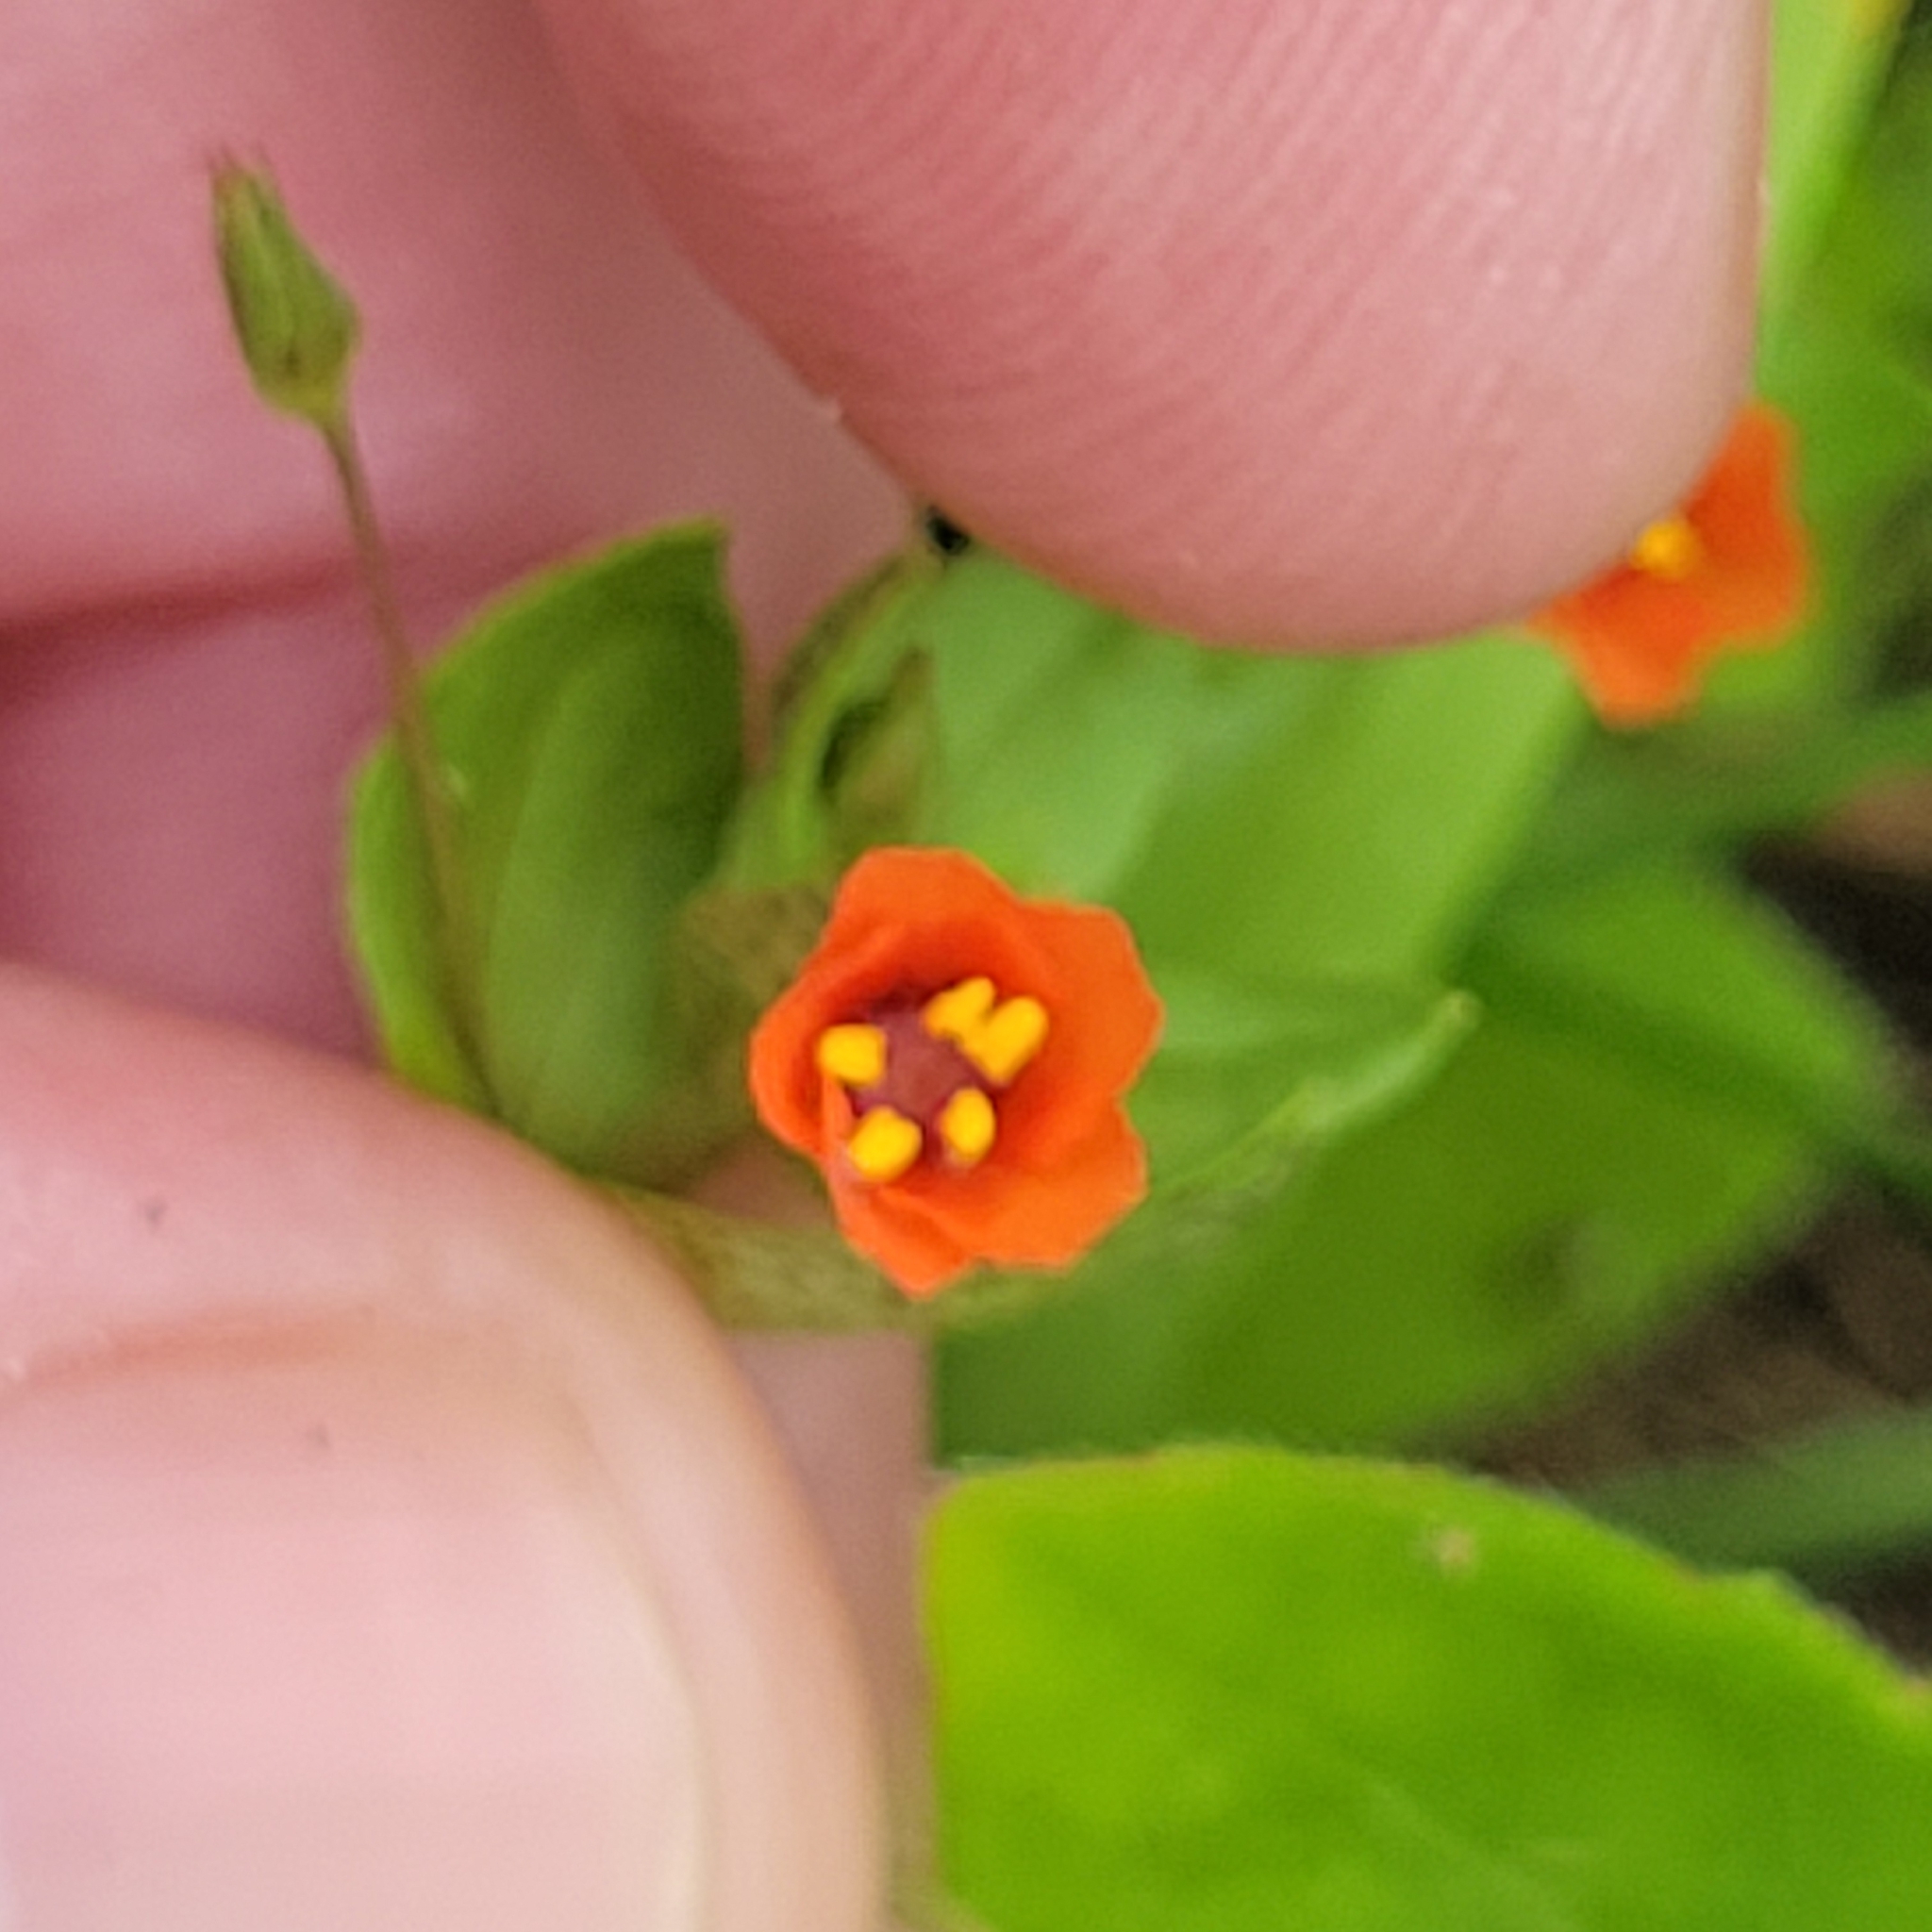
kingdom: Plantae
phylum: Tracheophyta
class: Magnoliopsida
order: Ericales
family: Primulaceae
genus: Lysimachia
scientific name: Lysimachia arvensis
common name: Scarlet pimpernel
